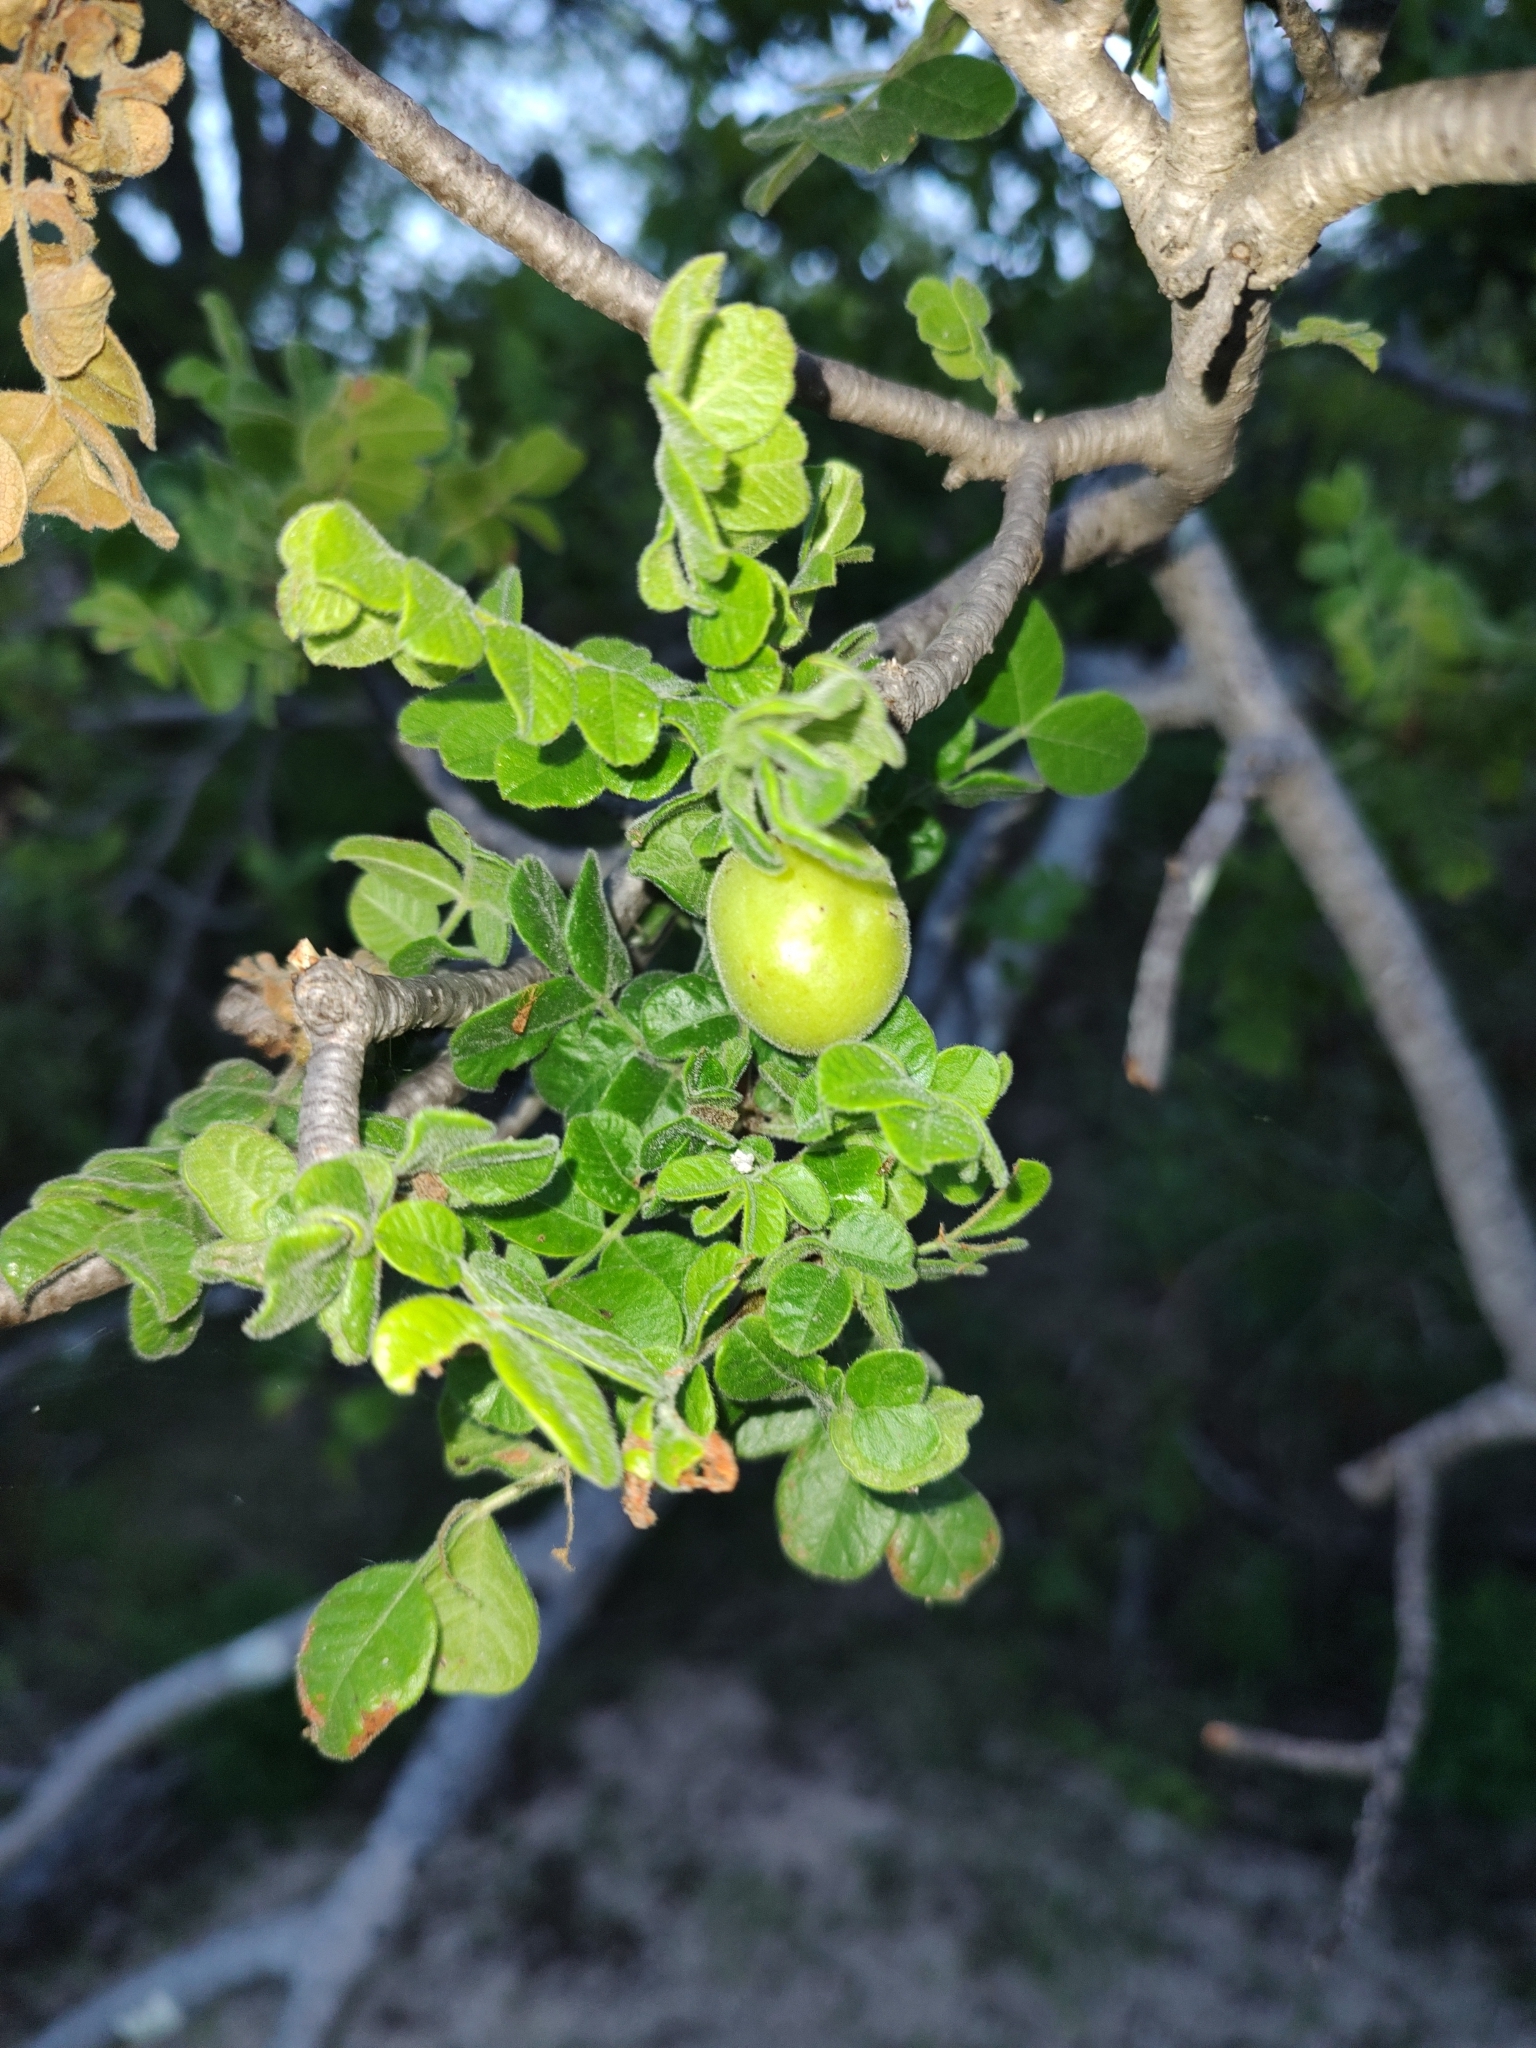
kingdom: Plantae
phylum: Tracheophyta
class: Magnoliopsida
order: Sapindales
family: Anacardiaceae
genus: Cyrtocarpa
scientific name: Cyrtocarpa edulis
